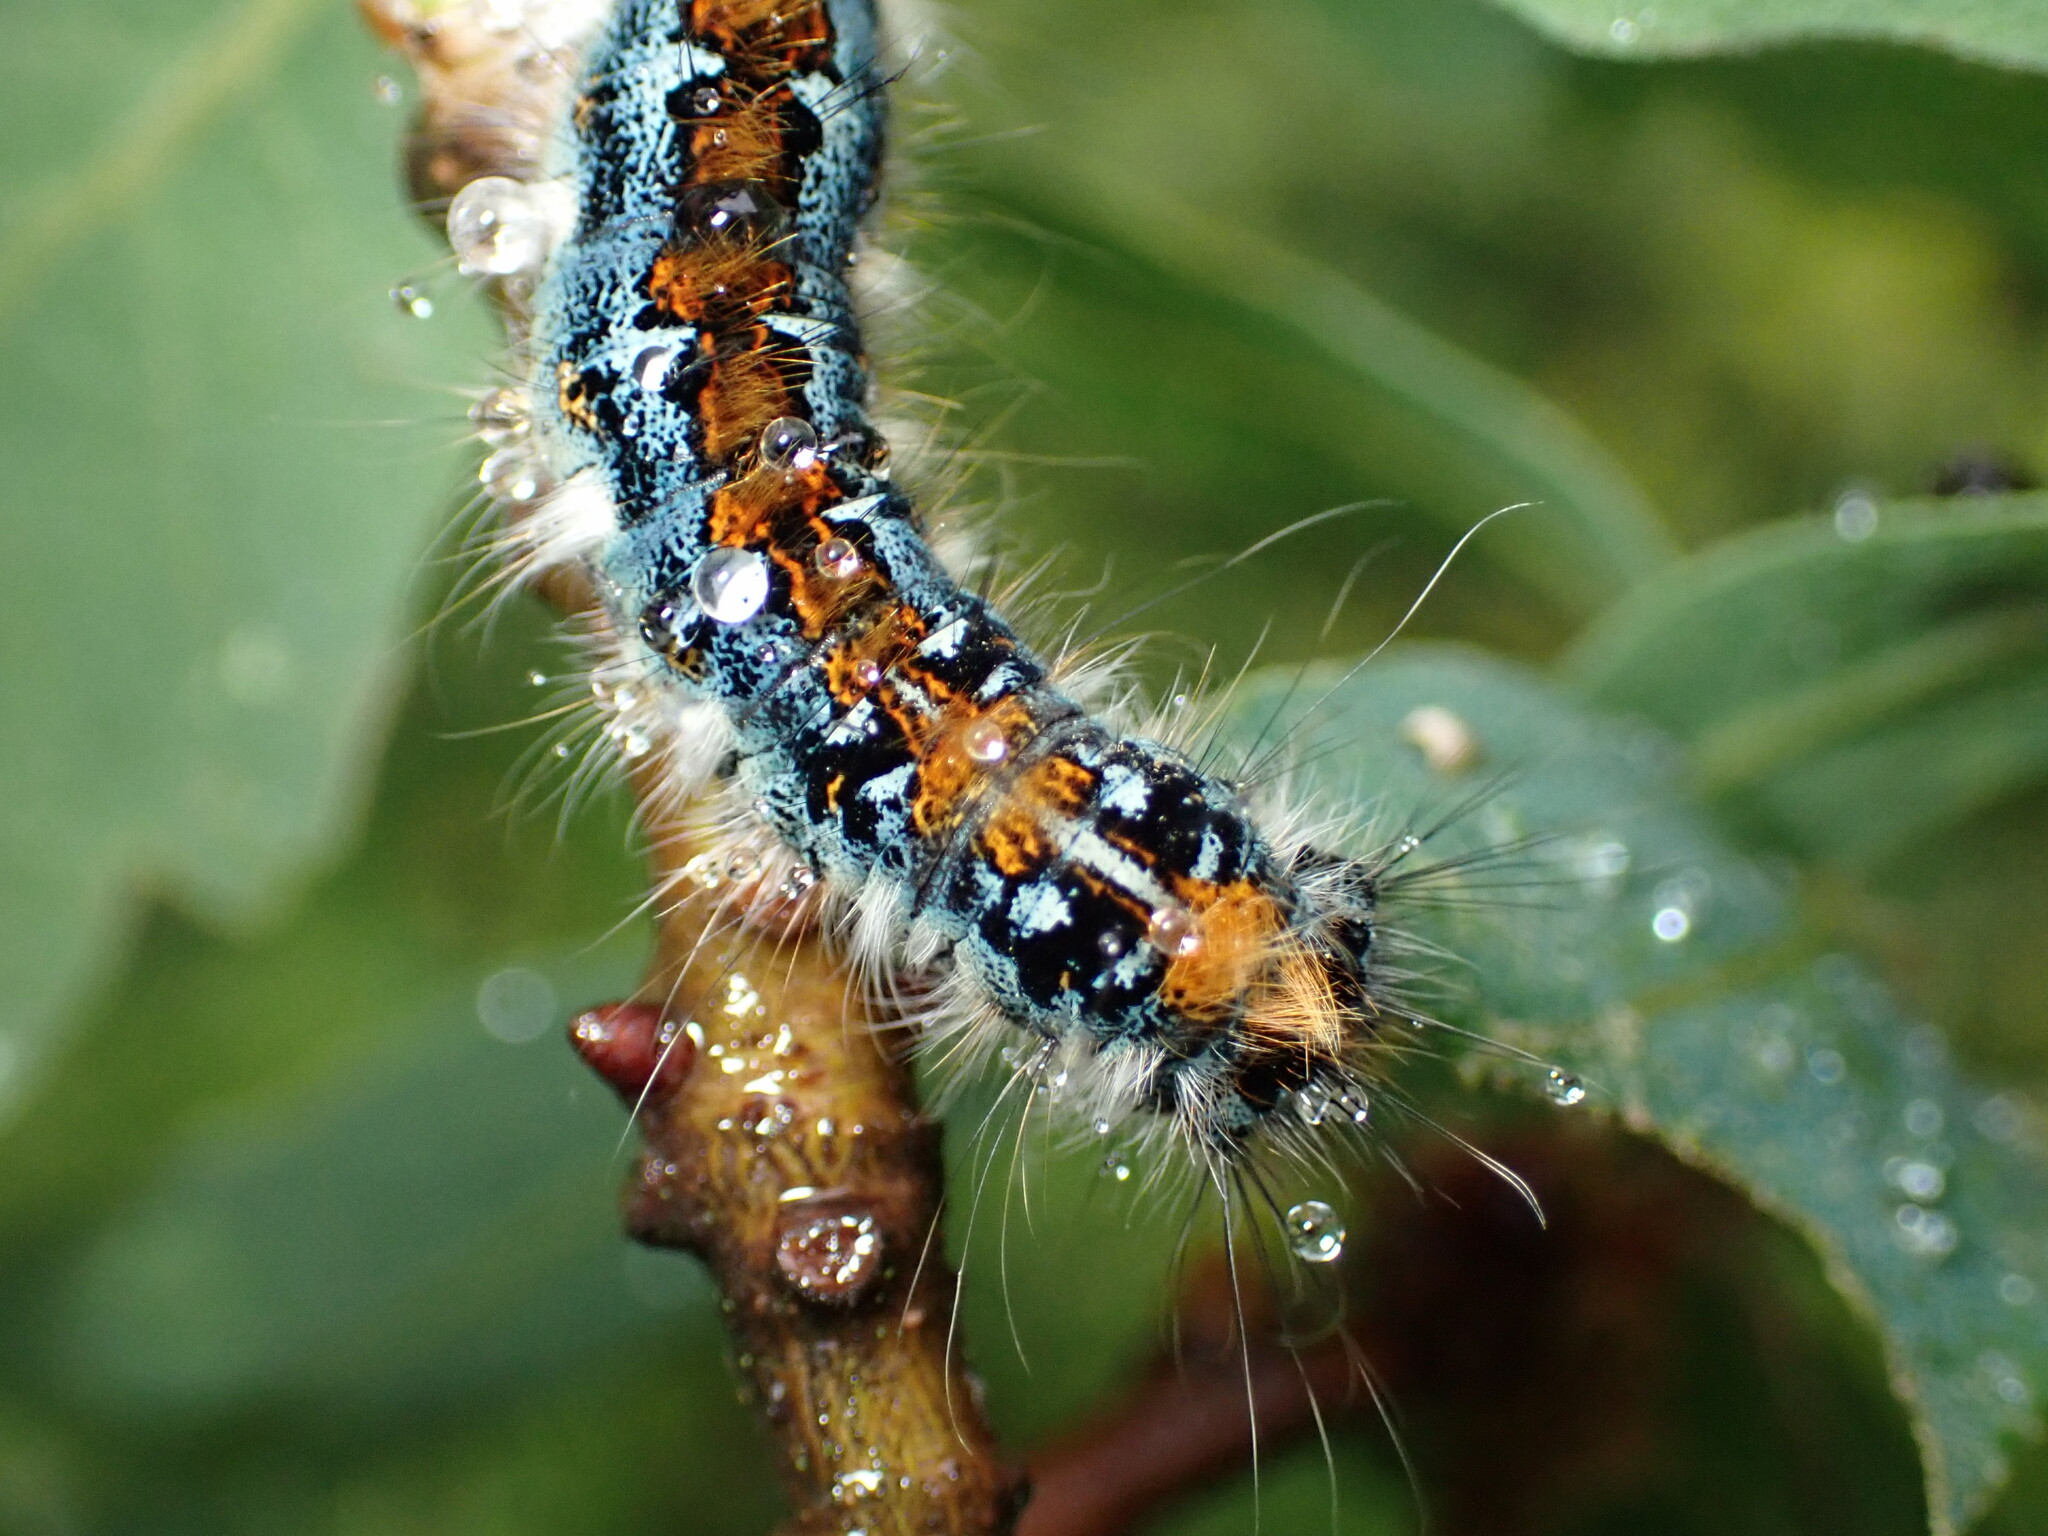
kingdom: Animalia
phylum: Arthropoda
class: Insecta
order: Lepidoptera
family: Lasiocampidae
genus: Malacosoma
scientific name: Malacosoma constricta
